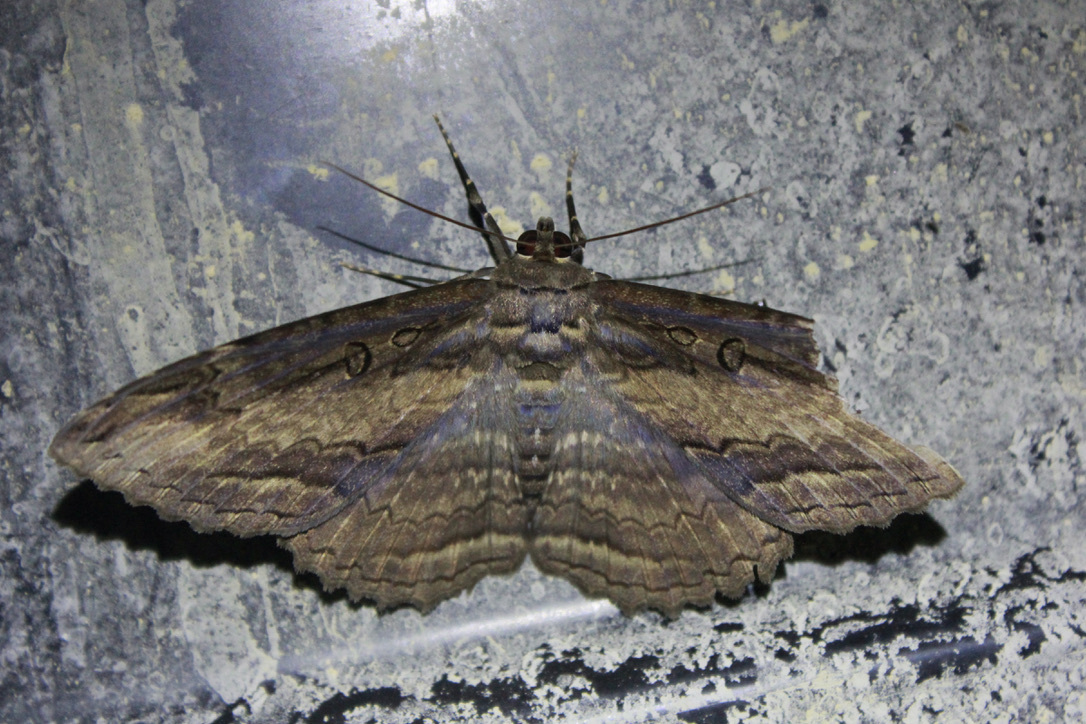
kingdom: Animalia
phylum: Arthropoda
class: Insecta
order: Lepidoptera
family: Erebidae
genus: Feigeria
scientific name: Feigeria buteo
